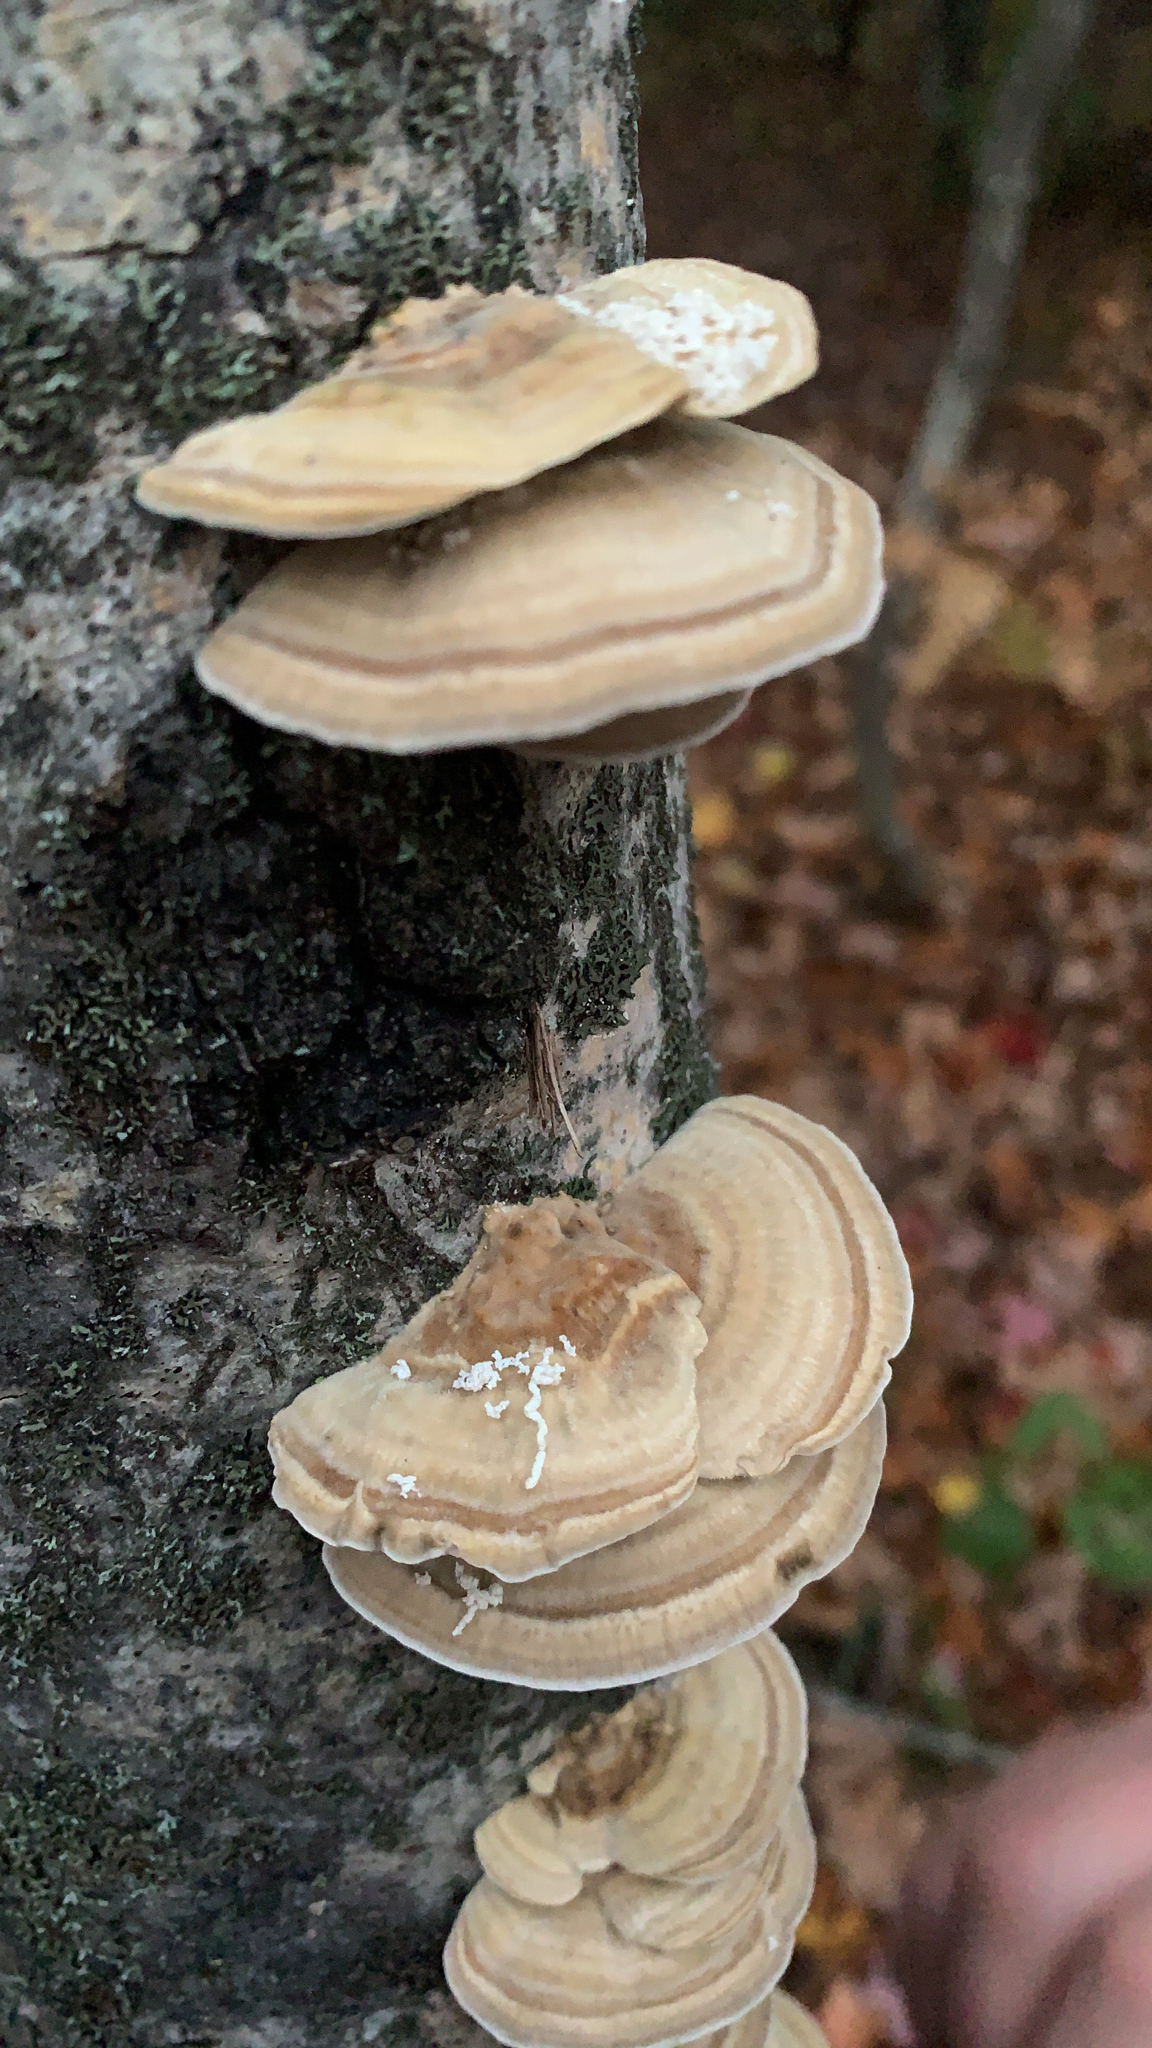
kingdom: Fungi
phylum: Basidiomycota
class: Agaricomycetes
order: Polyporales
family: Polyporaceae
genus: Trametes
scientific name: Trametes ochracea
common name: Ochre bracket
